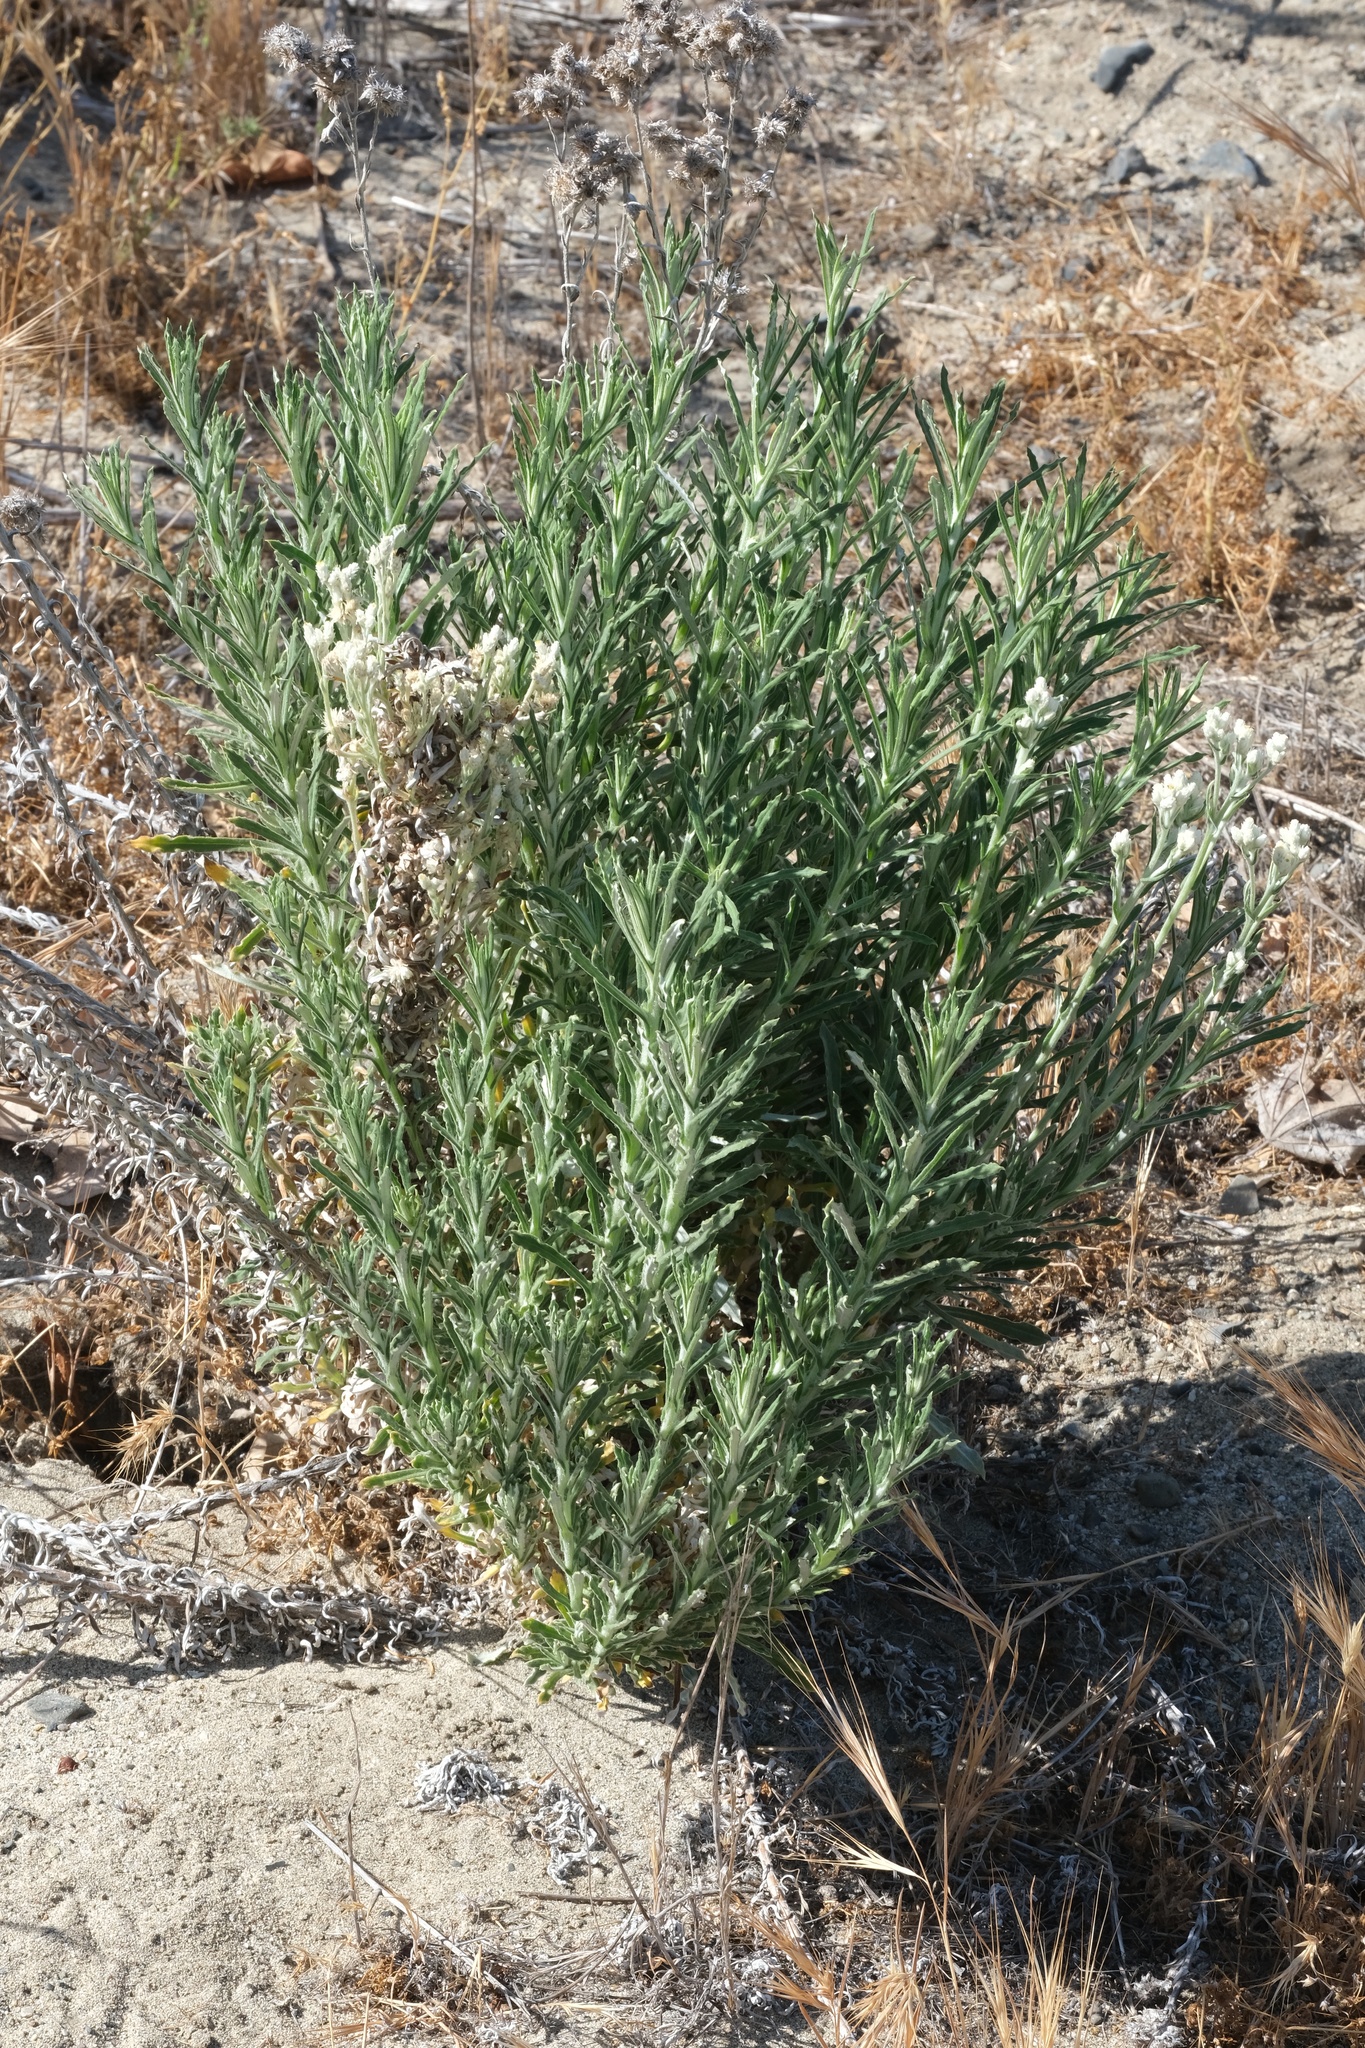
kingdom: Plantae
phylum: Tracheophyta
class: Magnoliopsida
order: Asterales
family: Asteraceae
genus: Pseudognaphalium
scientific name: Pseudognaphalium leucocephalum
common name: White cudweed
